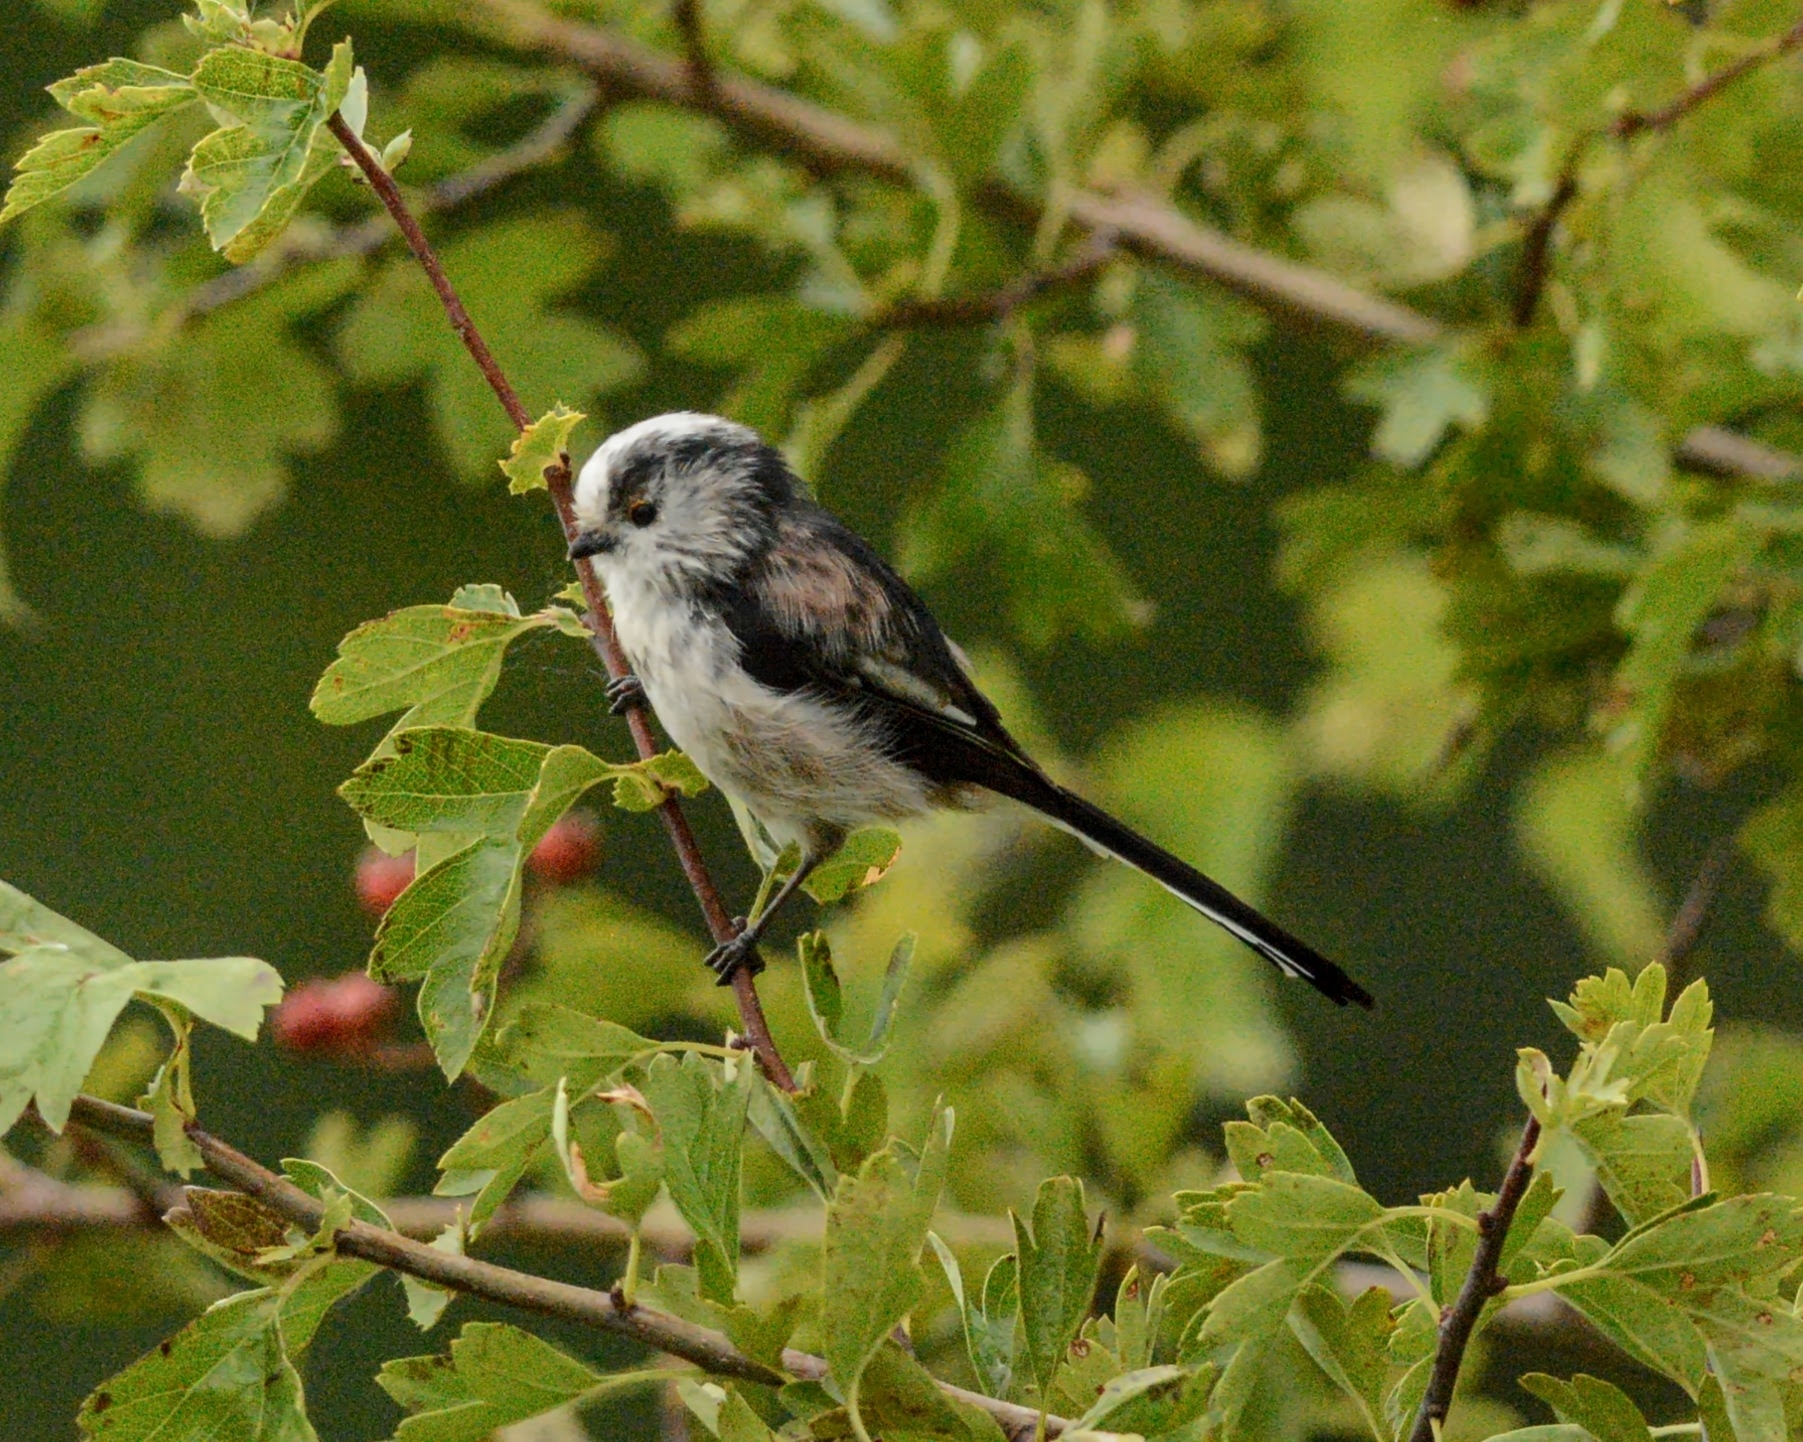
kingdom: Animalia
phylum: Chordata
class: Aves
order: Passeriformes
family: Aegithalidae
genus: Aegithalos
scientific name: Aegithalos caudatus
